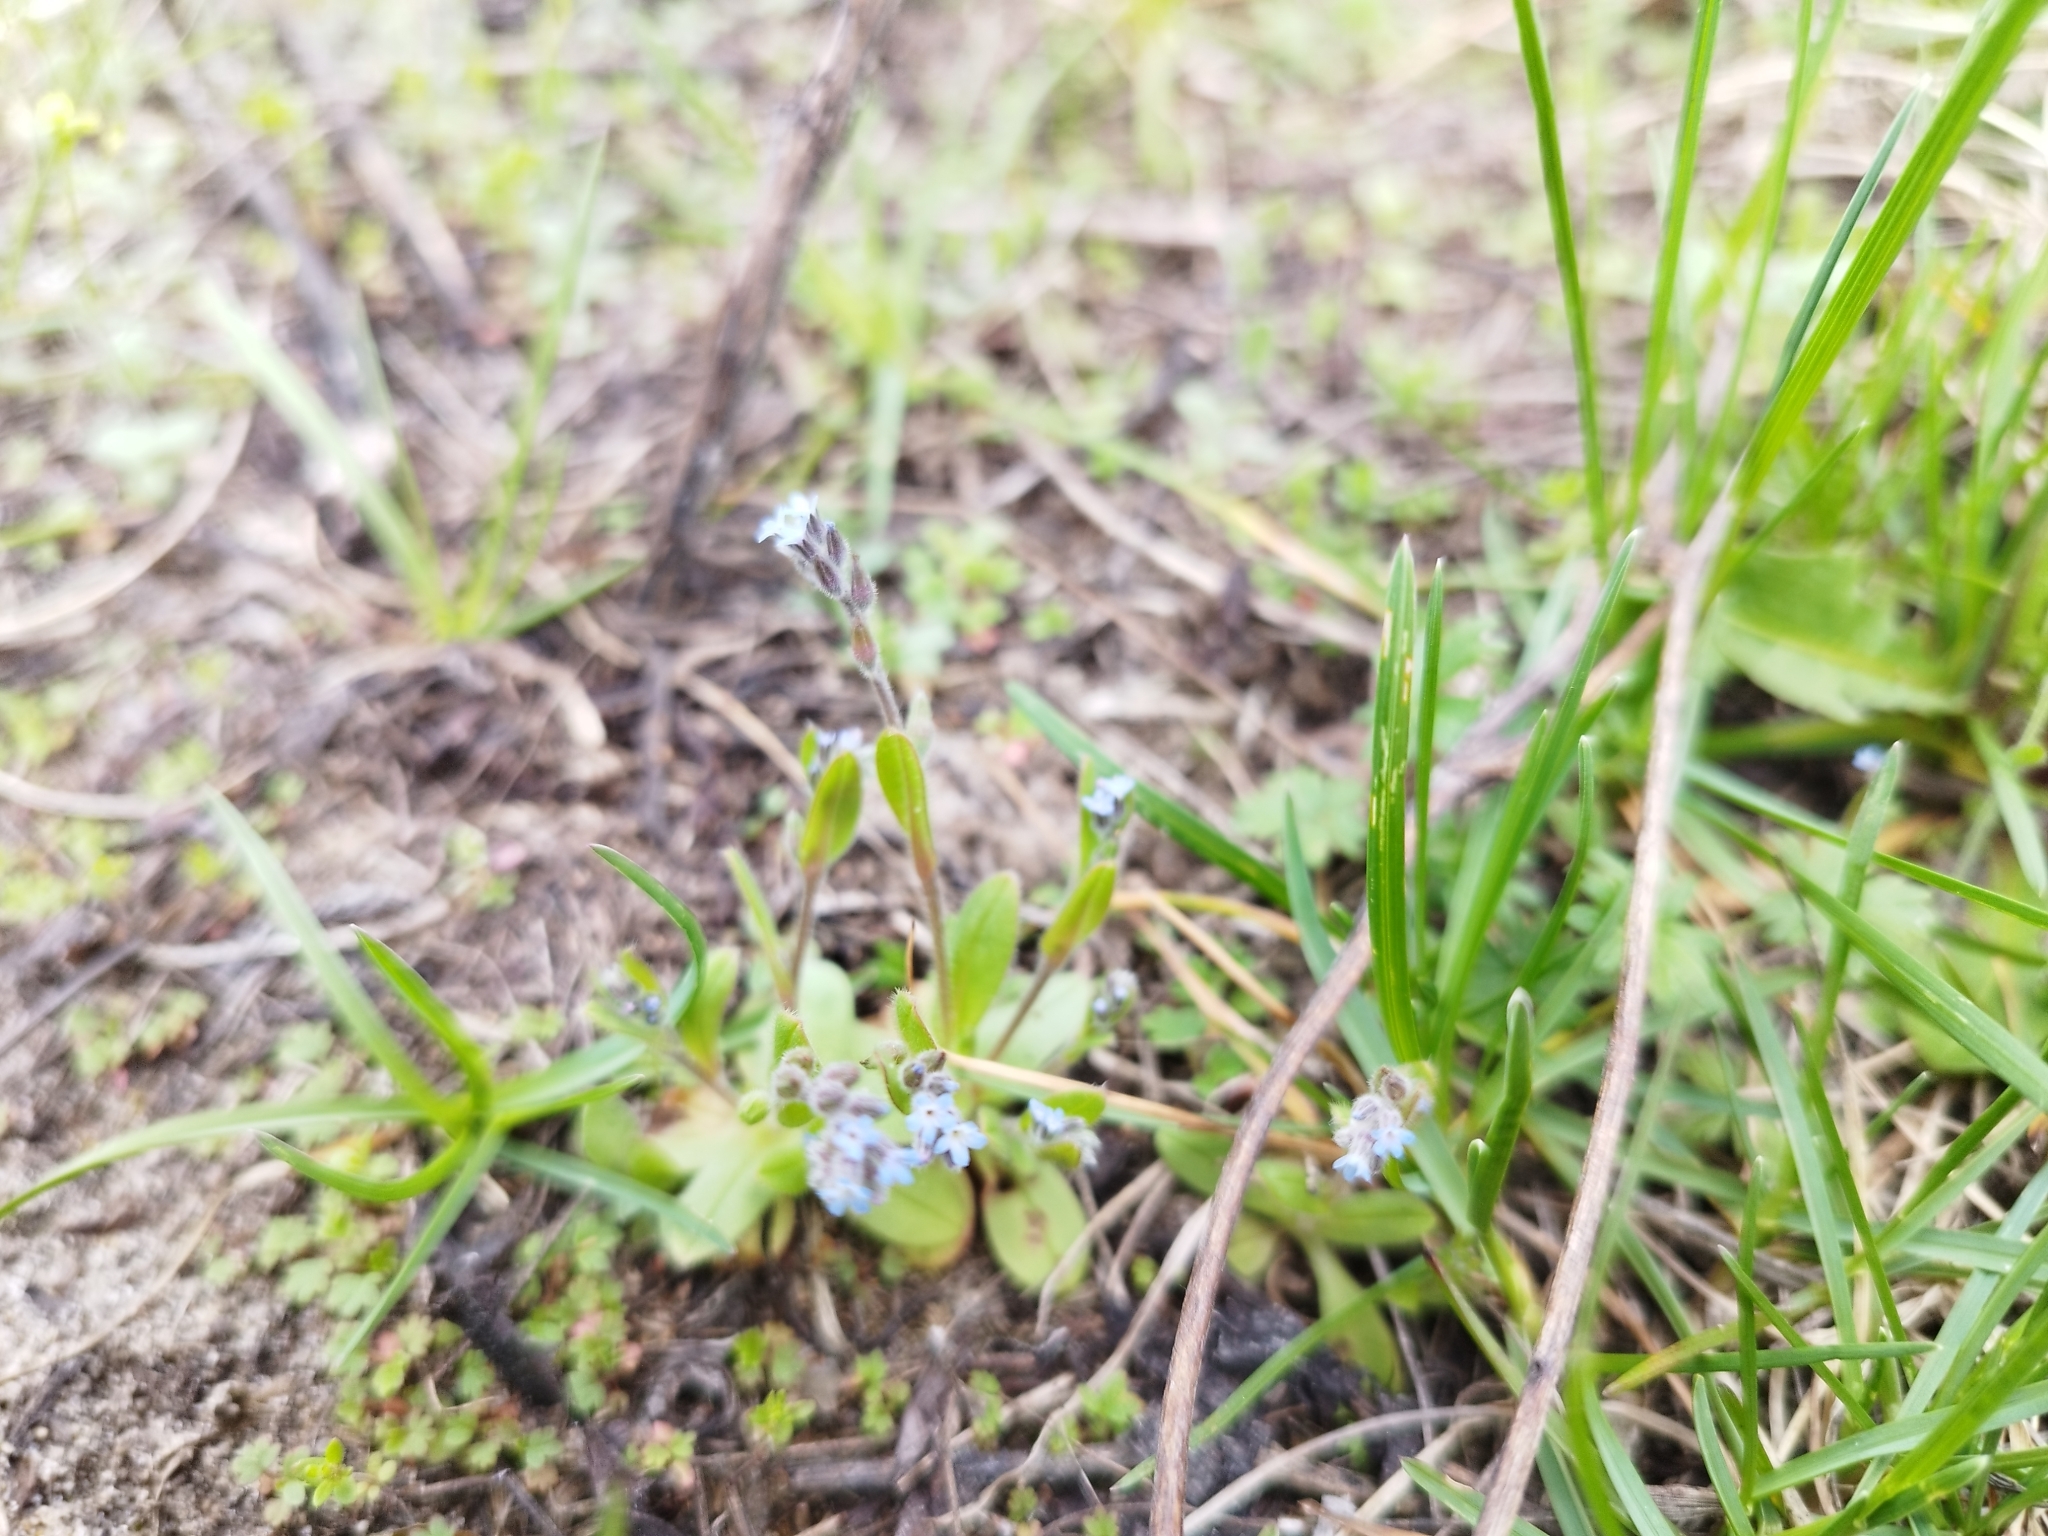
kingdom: Plantae
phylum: Tracheophyta
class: Magnoliopsida
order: Boraginales
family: Boraginaceae
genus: Myosotis
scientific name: Myosotis stricta
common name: Strict forget-me-not
